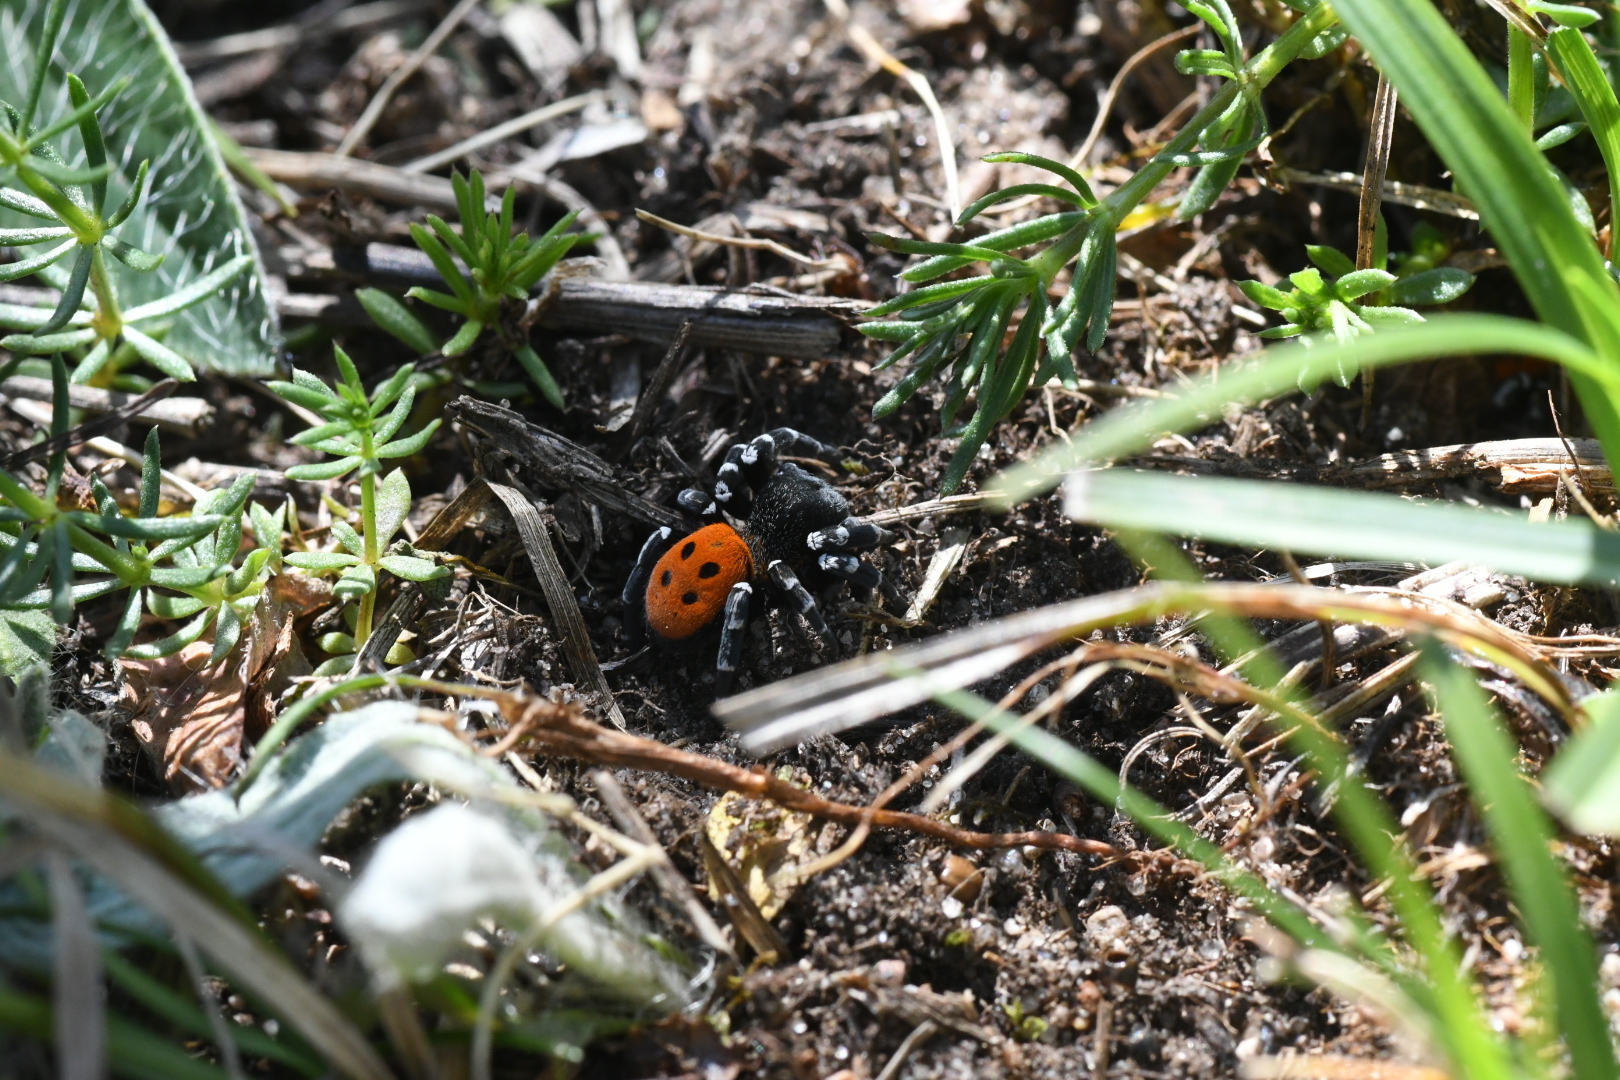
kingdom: Animalia
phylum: Arthropoda
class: Arachnida
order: Araneae
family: Eresidae
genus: Eresus
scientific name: Eresus sandaliatus
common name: Ladybird spider
